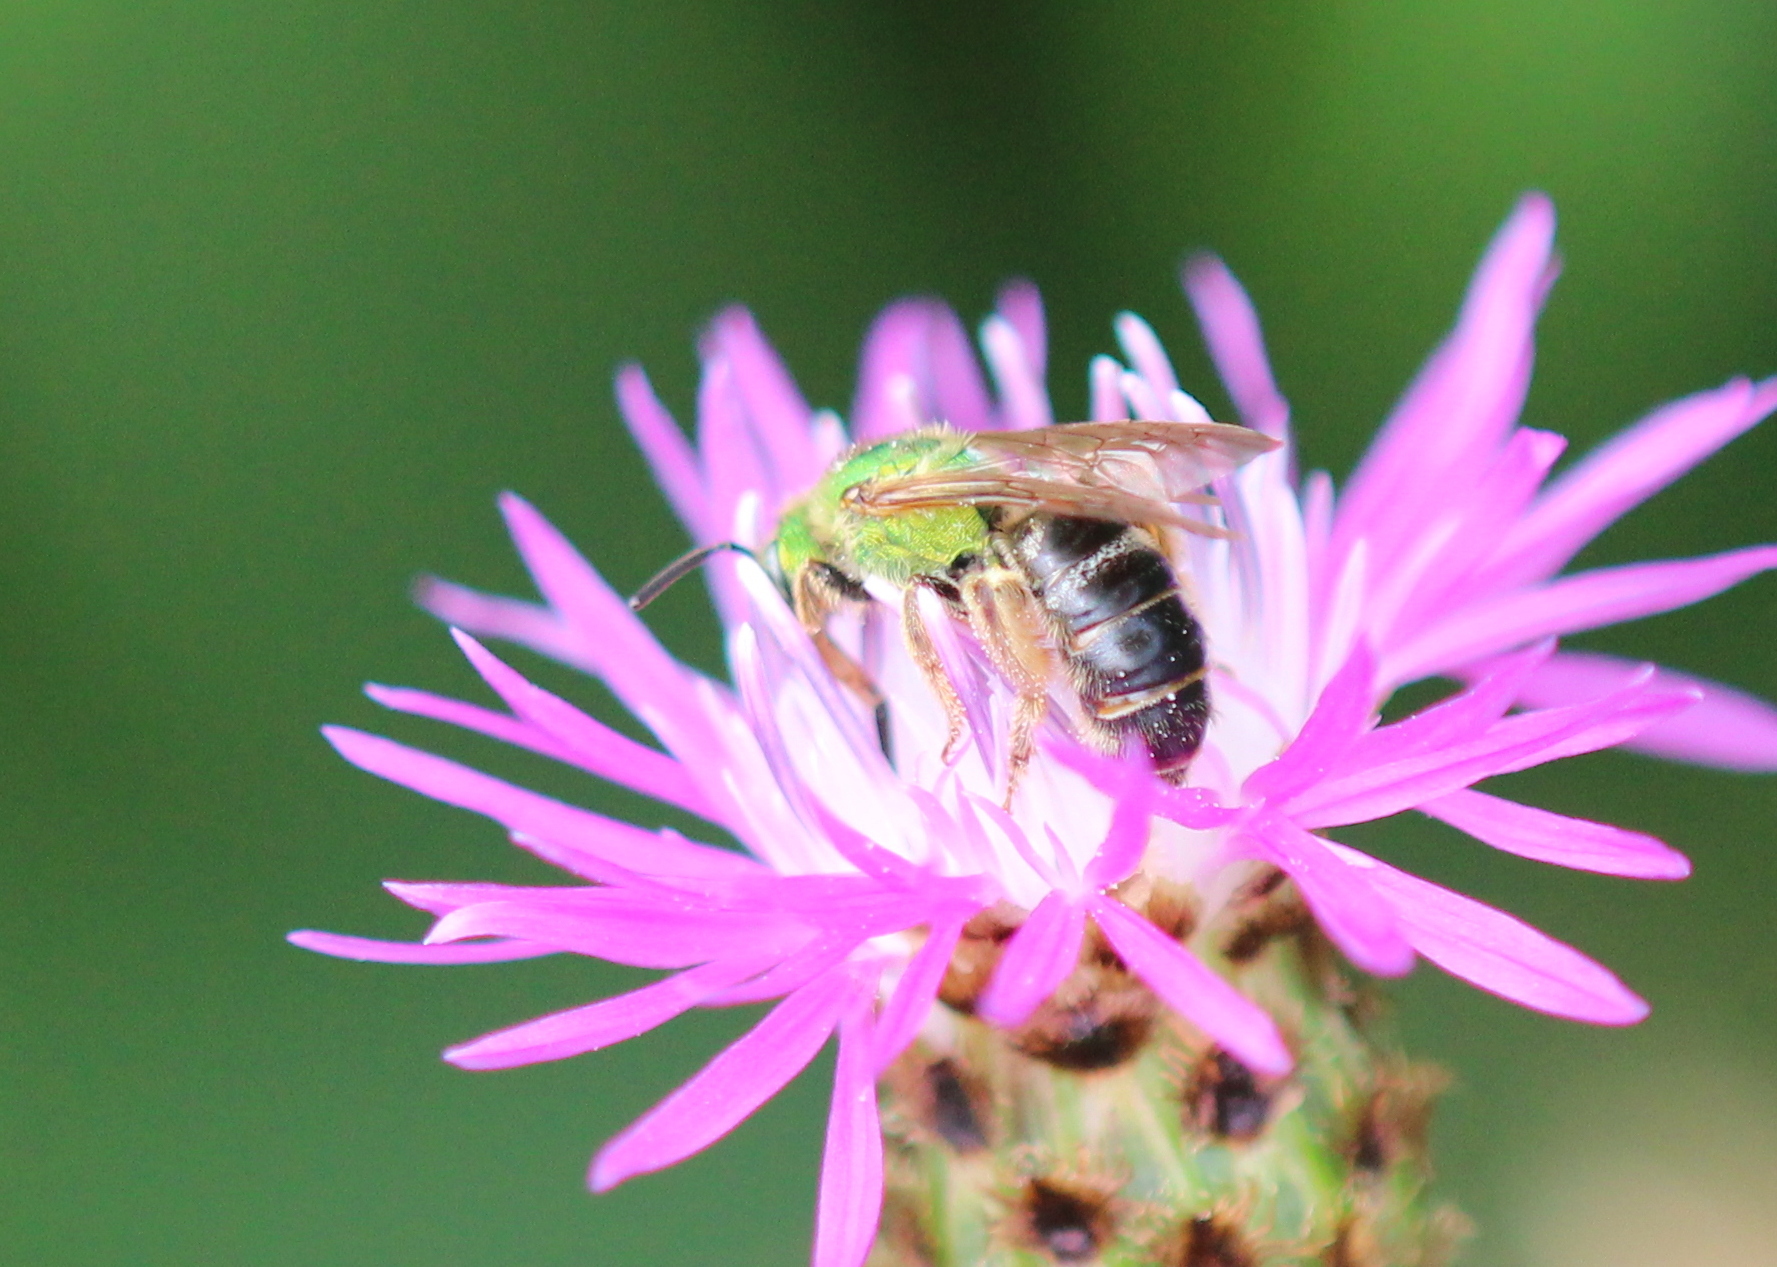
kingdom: Animalia
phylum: Arthropoda
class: Insecta
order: Hymenoptera
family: Halictidae
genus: Agapostemon
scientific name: Agapostemon virescens
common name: Bicolored striped sweat bee
